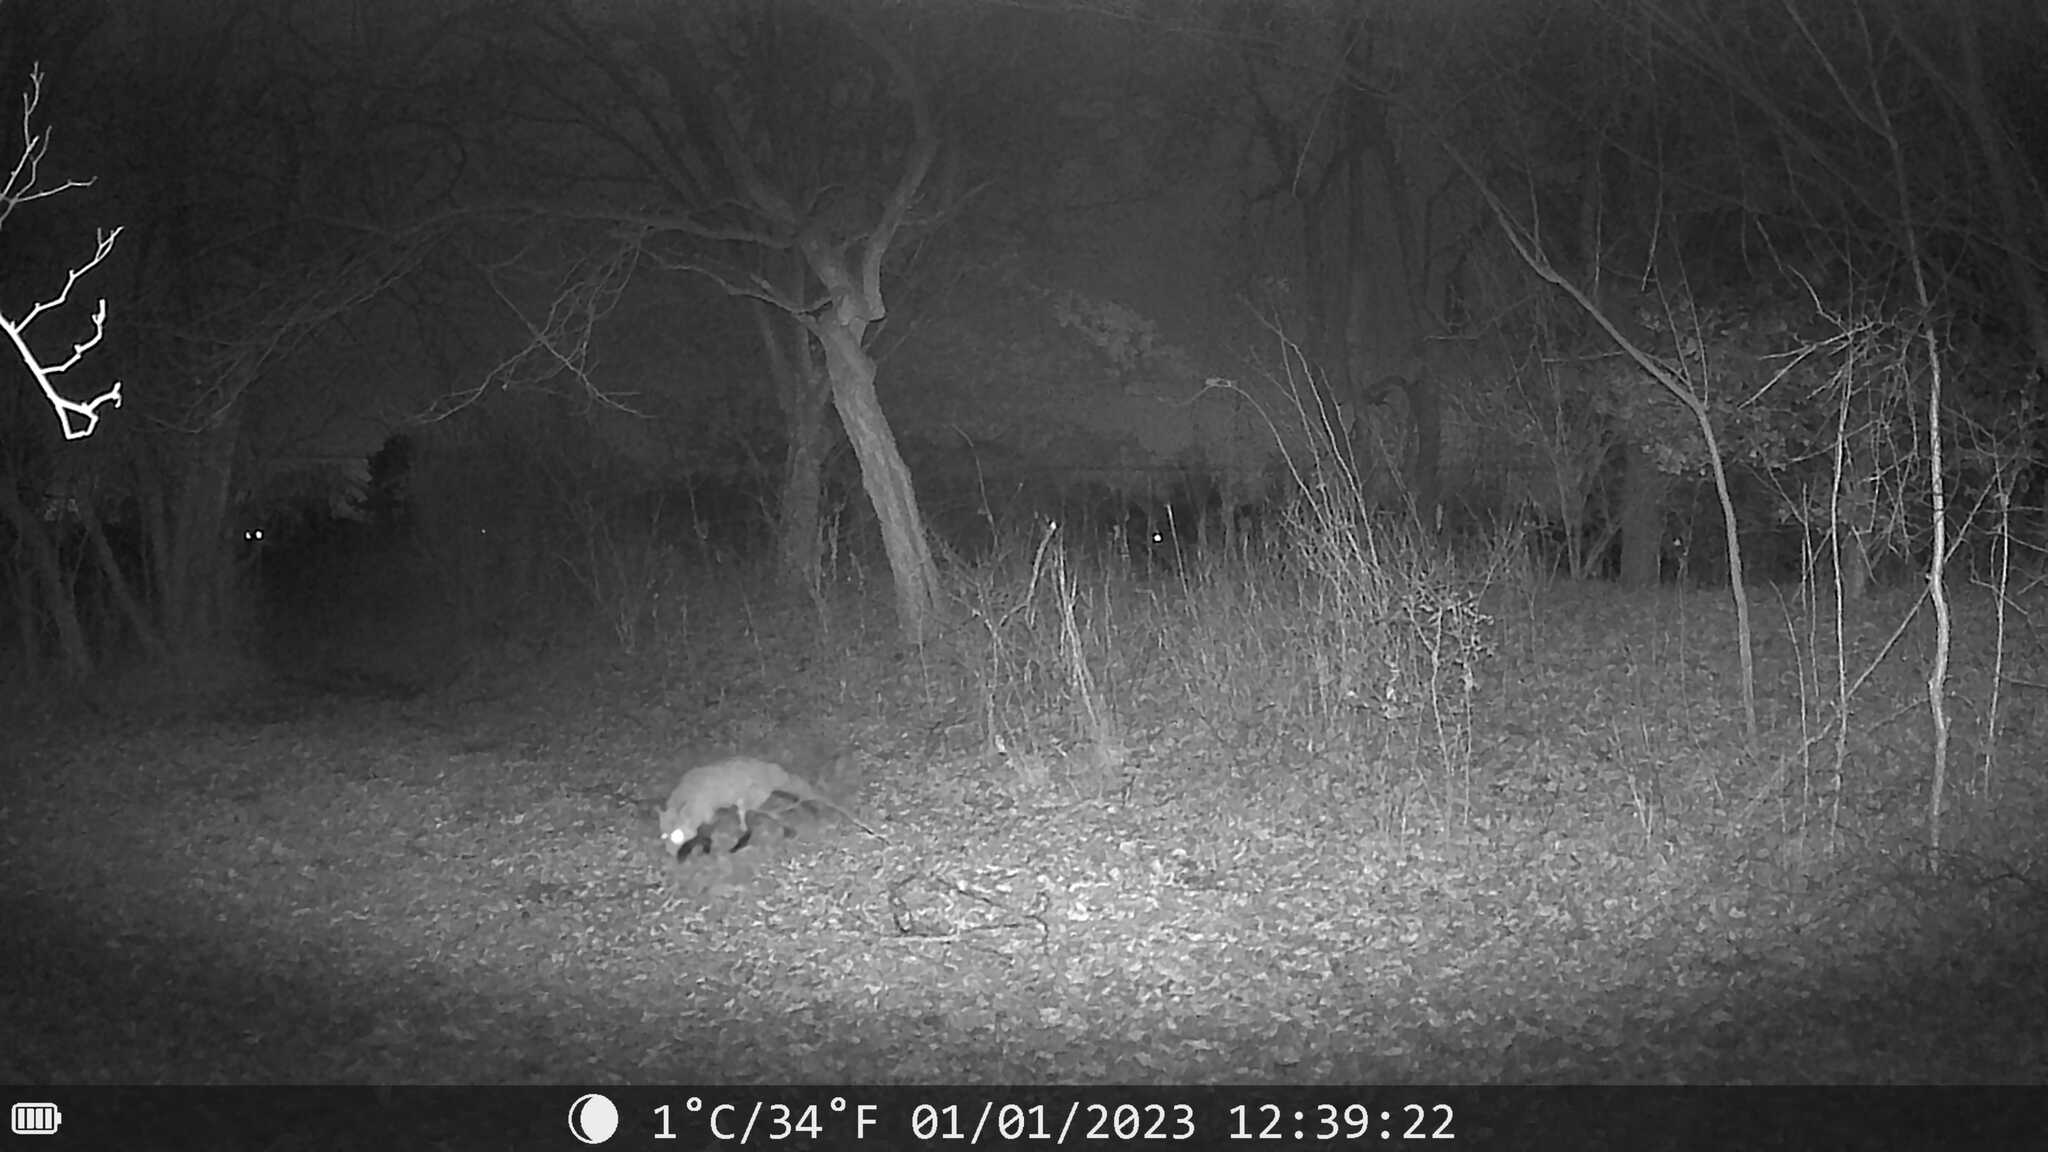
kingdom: Animalia
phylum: Chordata
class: Mammalia
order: Carnivora
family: Canidae
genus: Vulpes
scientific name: Vulpes vulpes
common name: Red fox
